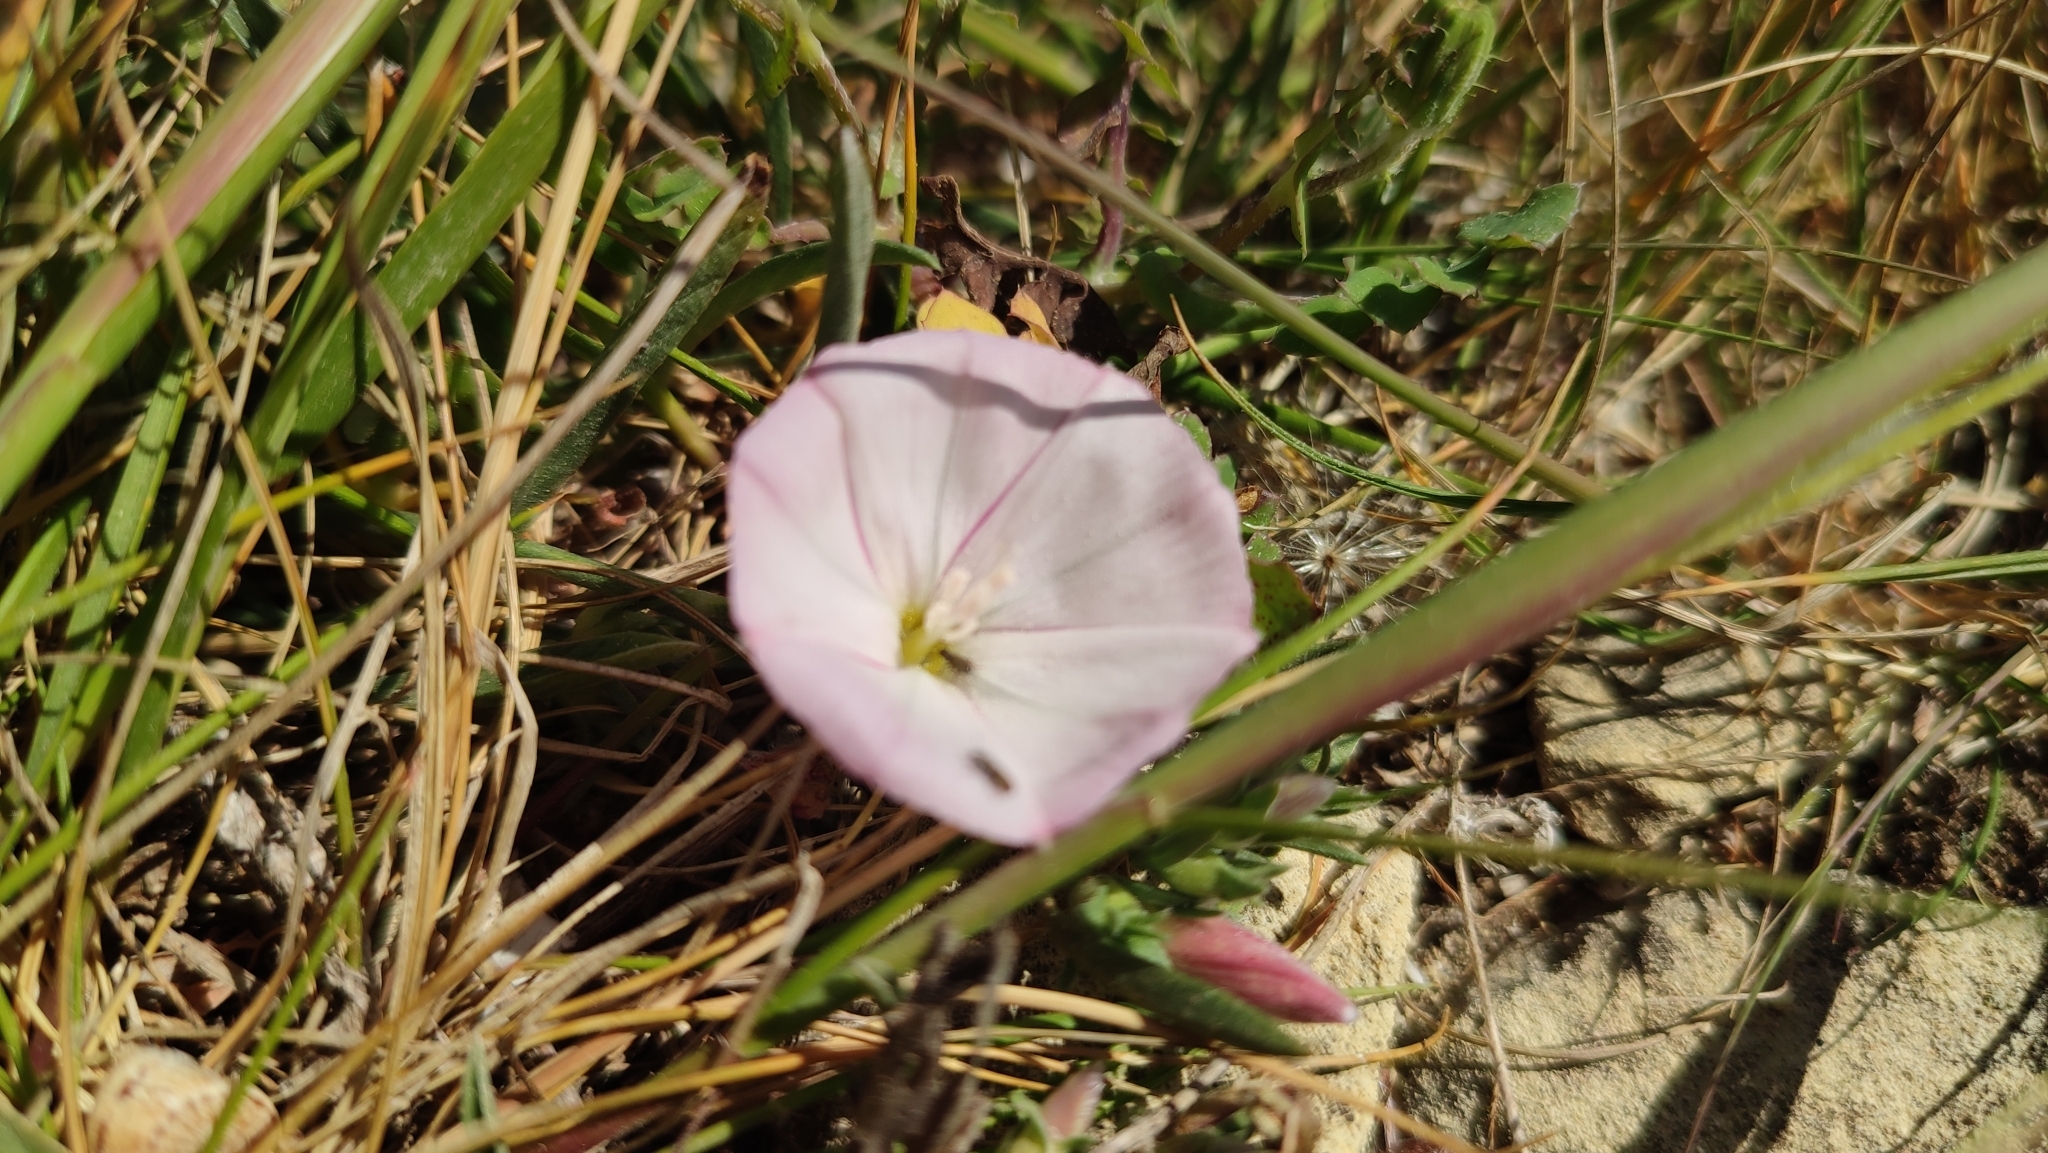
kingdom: Plantae
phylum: Tracheophyta
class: Magnoliopsida
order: Solanales
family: Convolvulaceae
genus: Convolvulus
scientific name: Convolvulus lineatus
